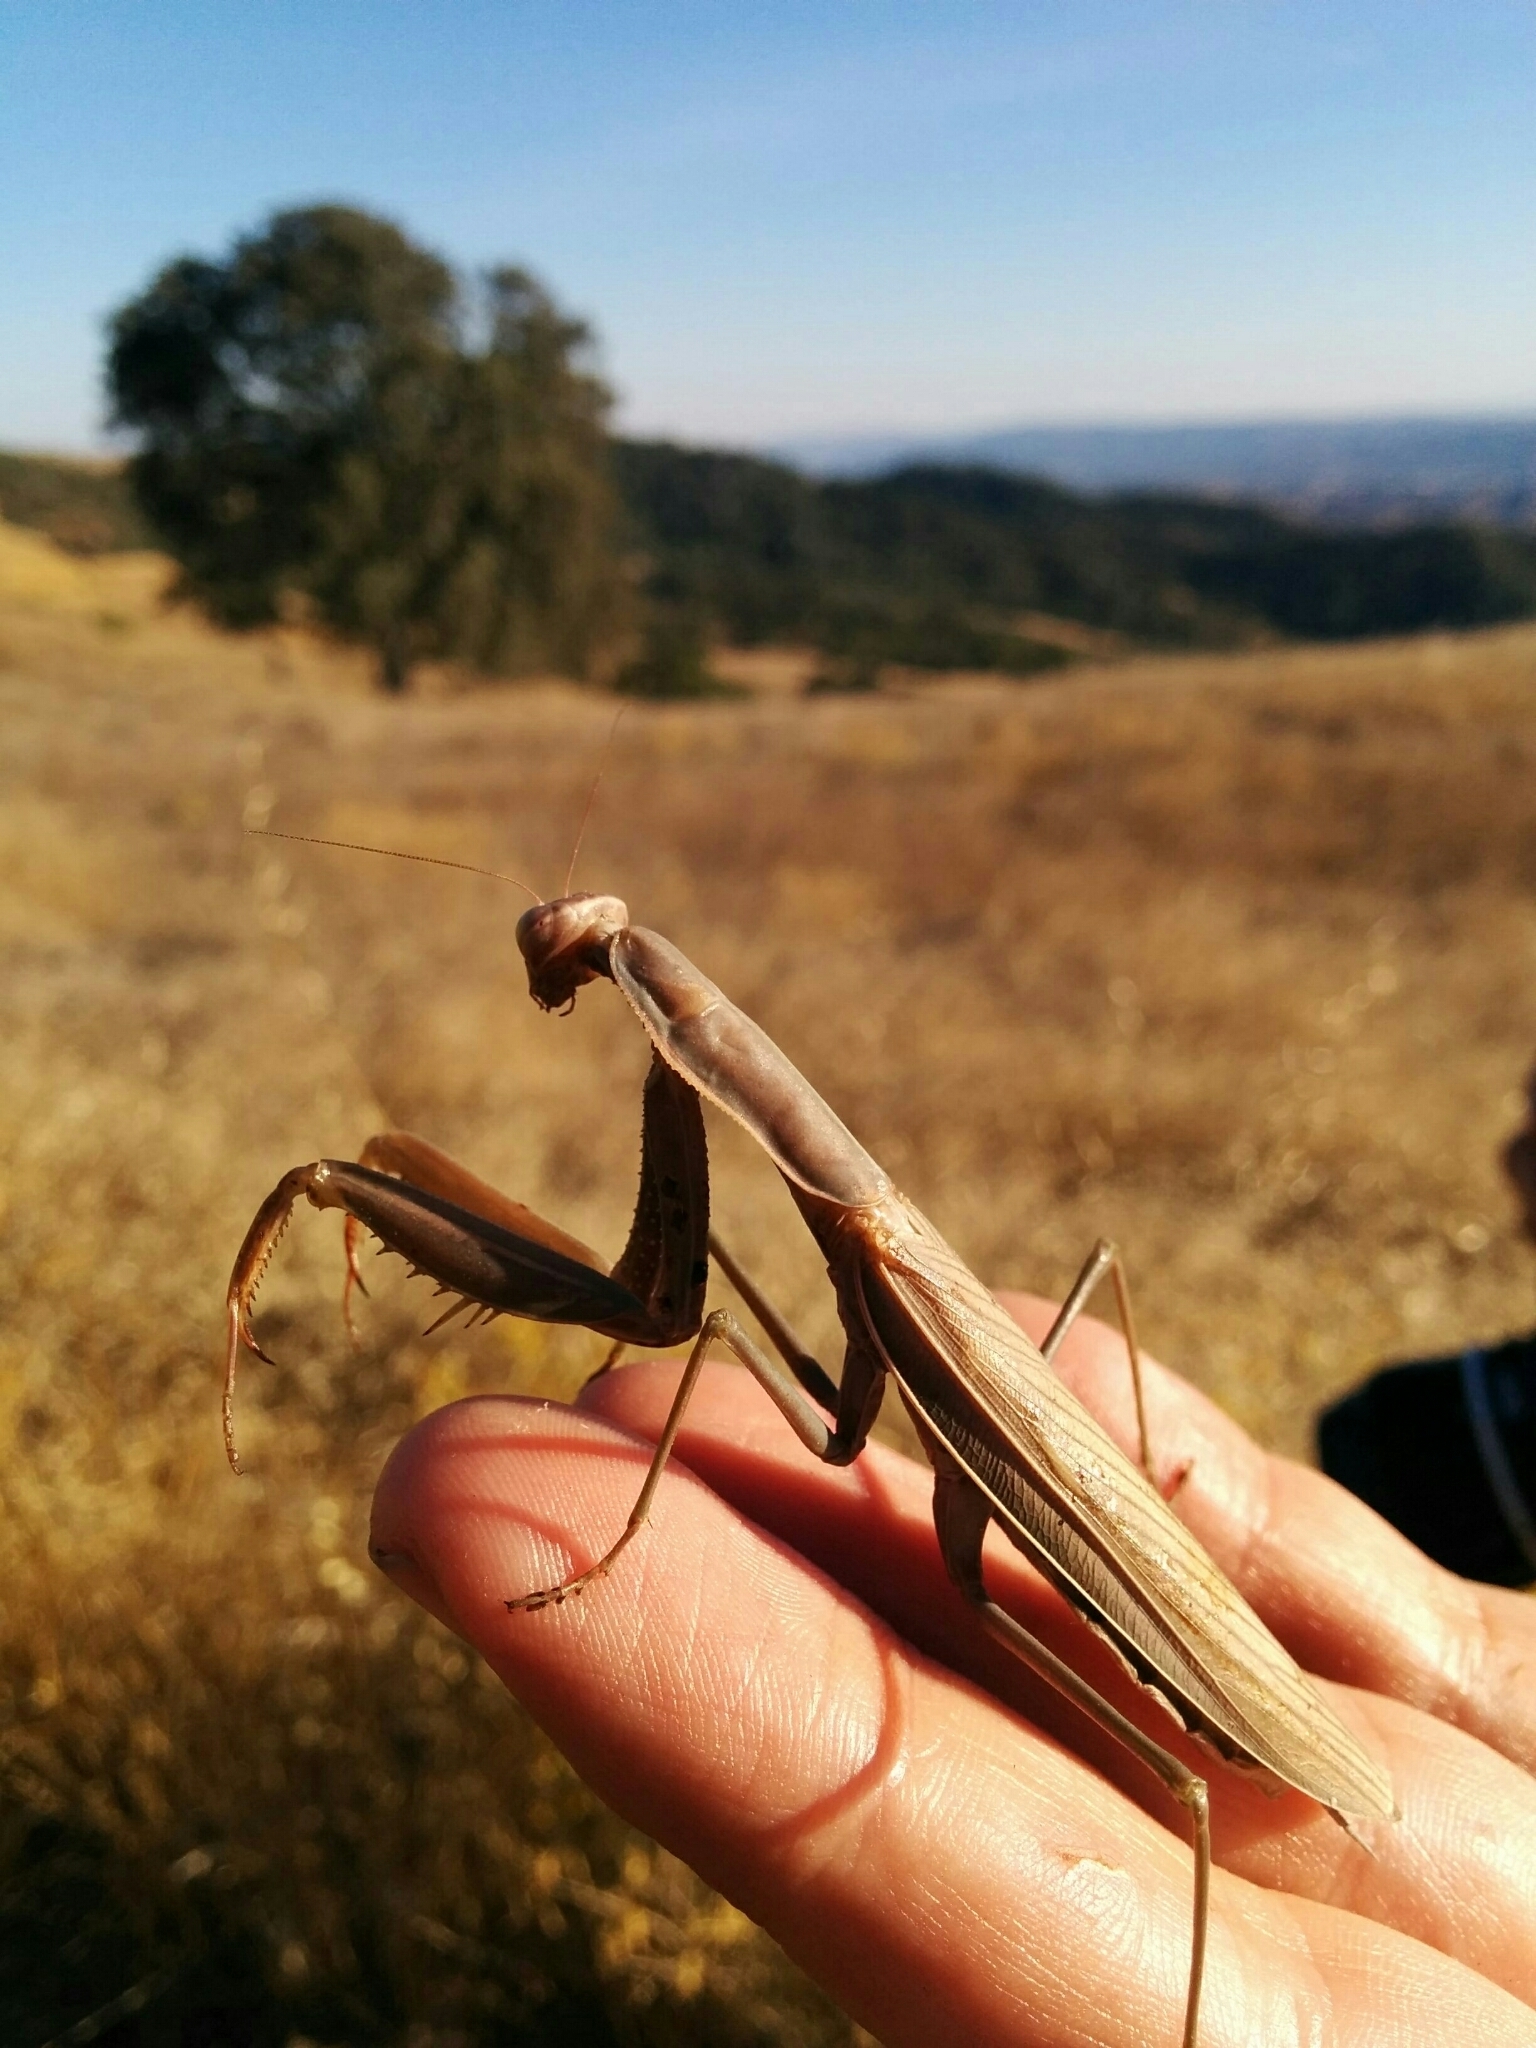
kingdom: Animalia
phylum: Arthropoda
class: Insecta
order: Mantodea
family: Mantidae
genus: Mantis
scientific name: Mantis religiosa
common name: Praying mantis
